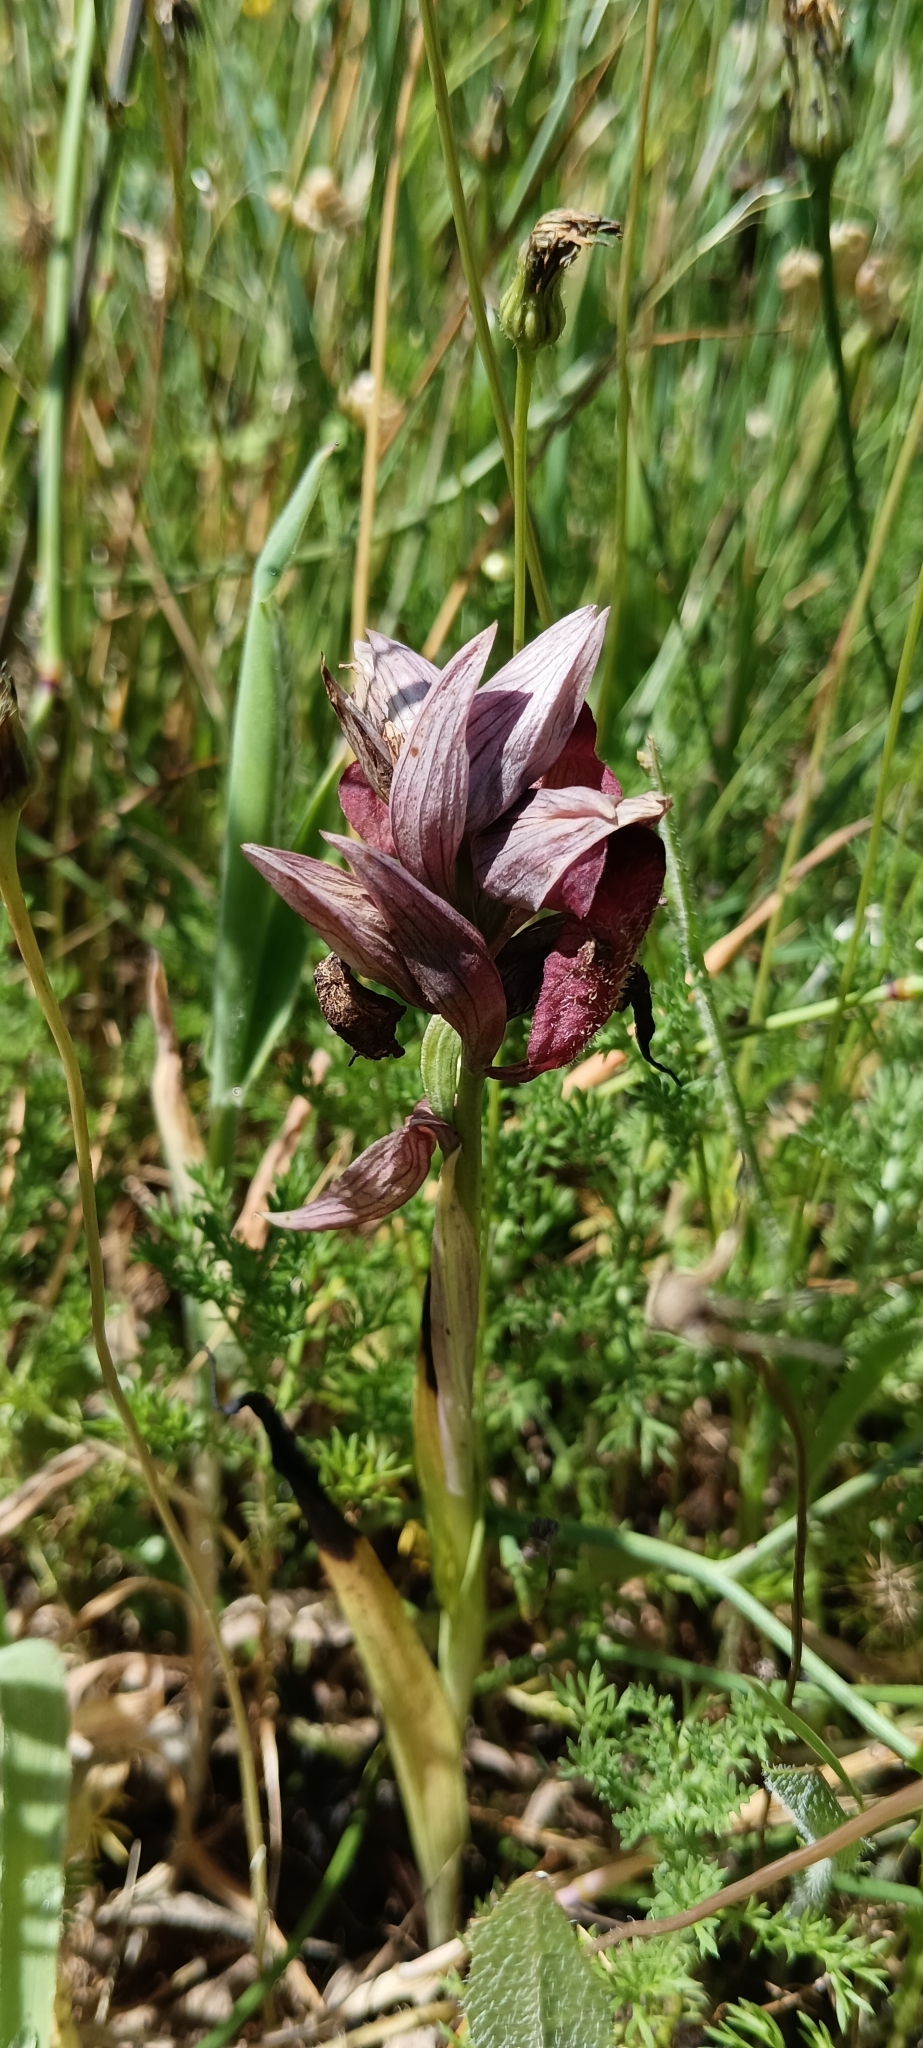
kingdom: Plantae
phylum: Tracheophyta
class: Liliopsida
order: Asparagales
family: Orchidaceae
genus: Serapias
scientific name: Serapias cordigera
